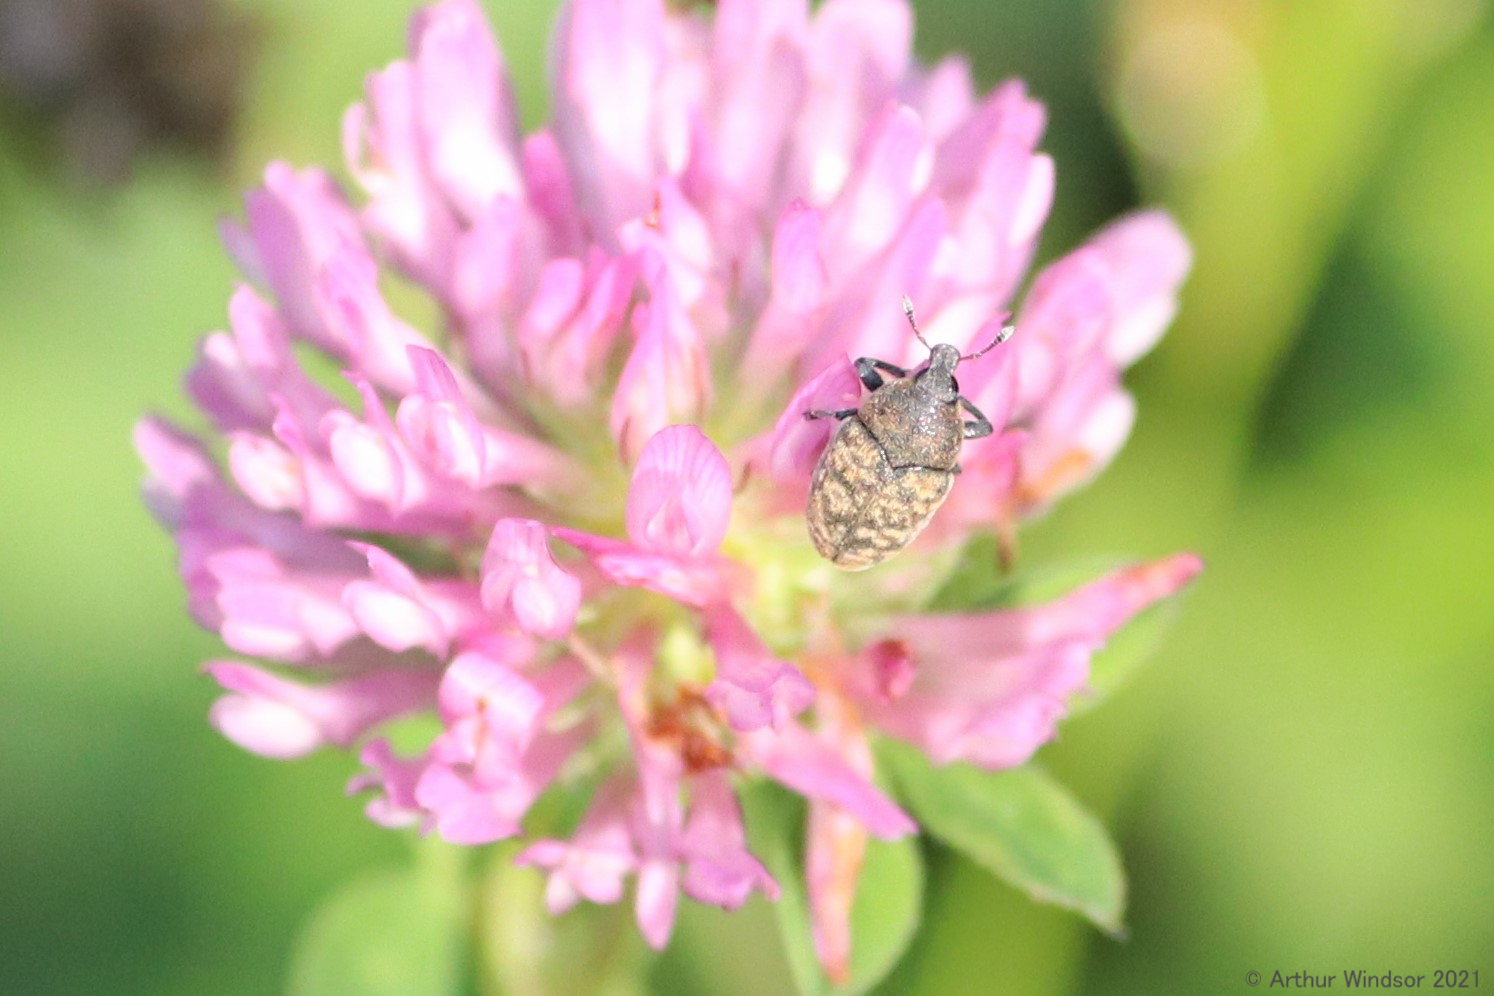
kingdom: Animalia
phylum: Arthropoda
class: Insecta
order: Coleoptera
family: Curculionidae
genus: Larinus
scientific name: Larinus obtusus
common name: Weevil
